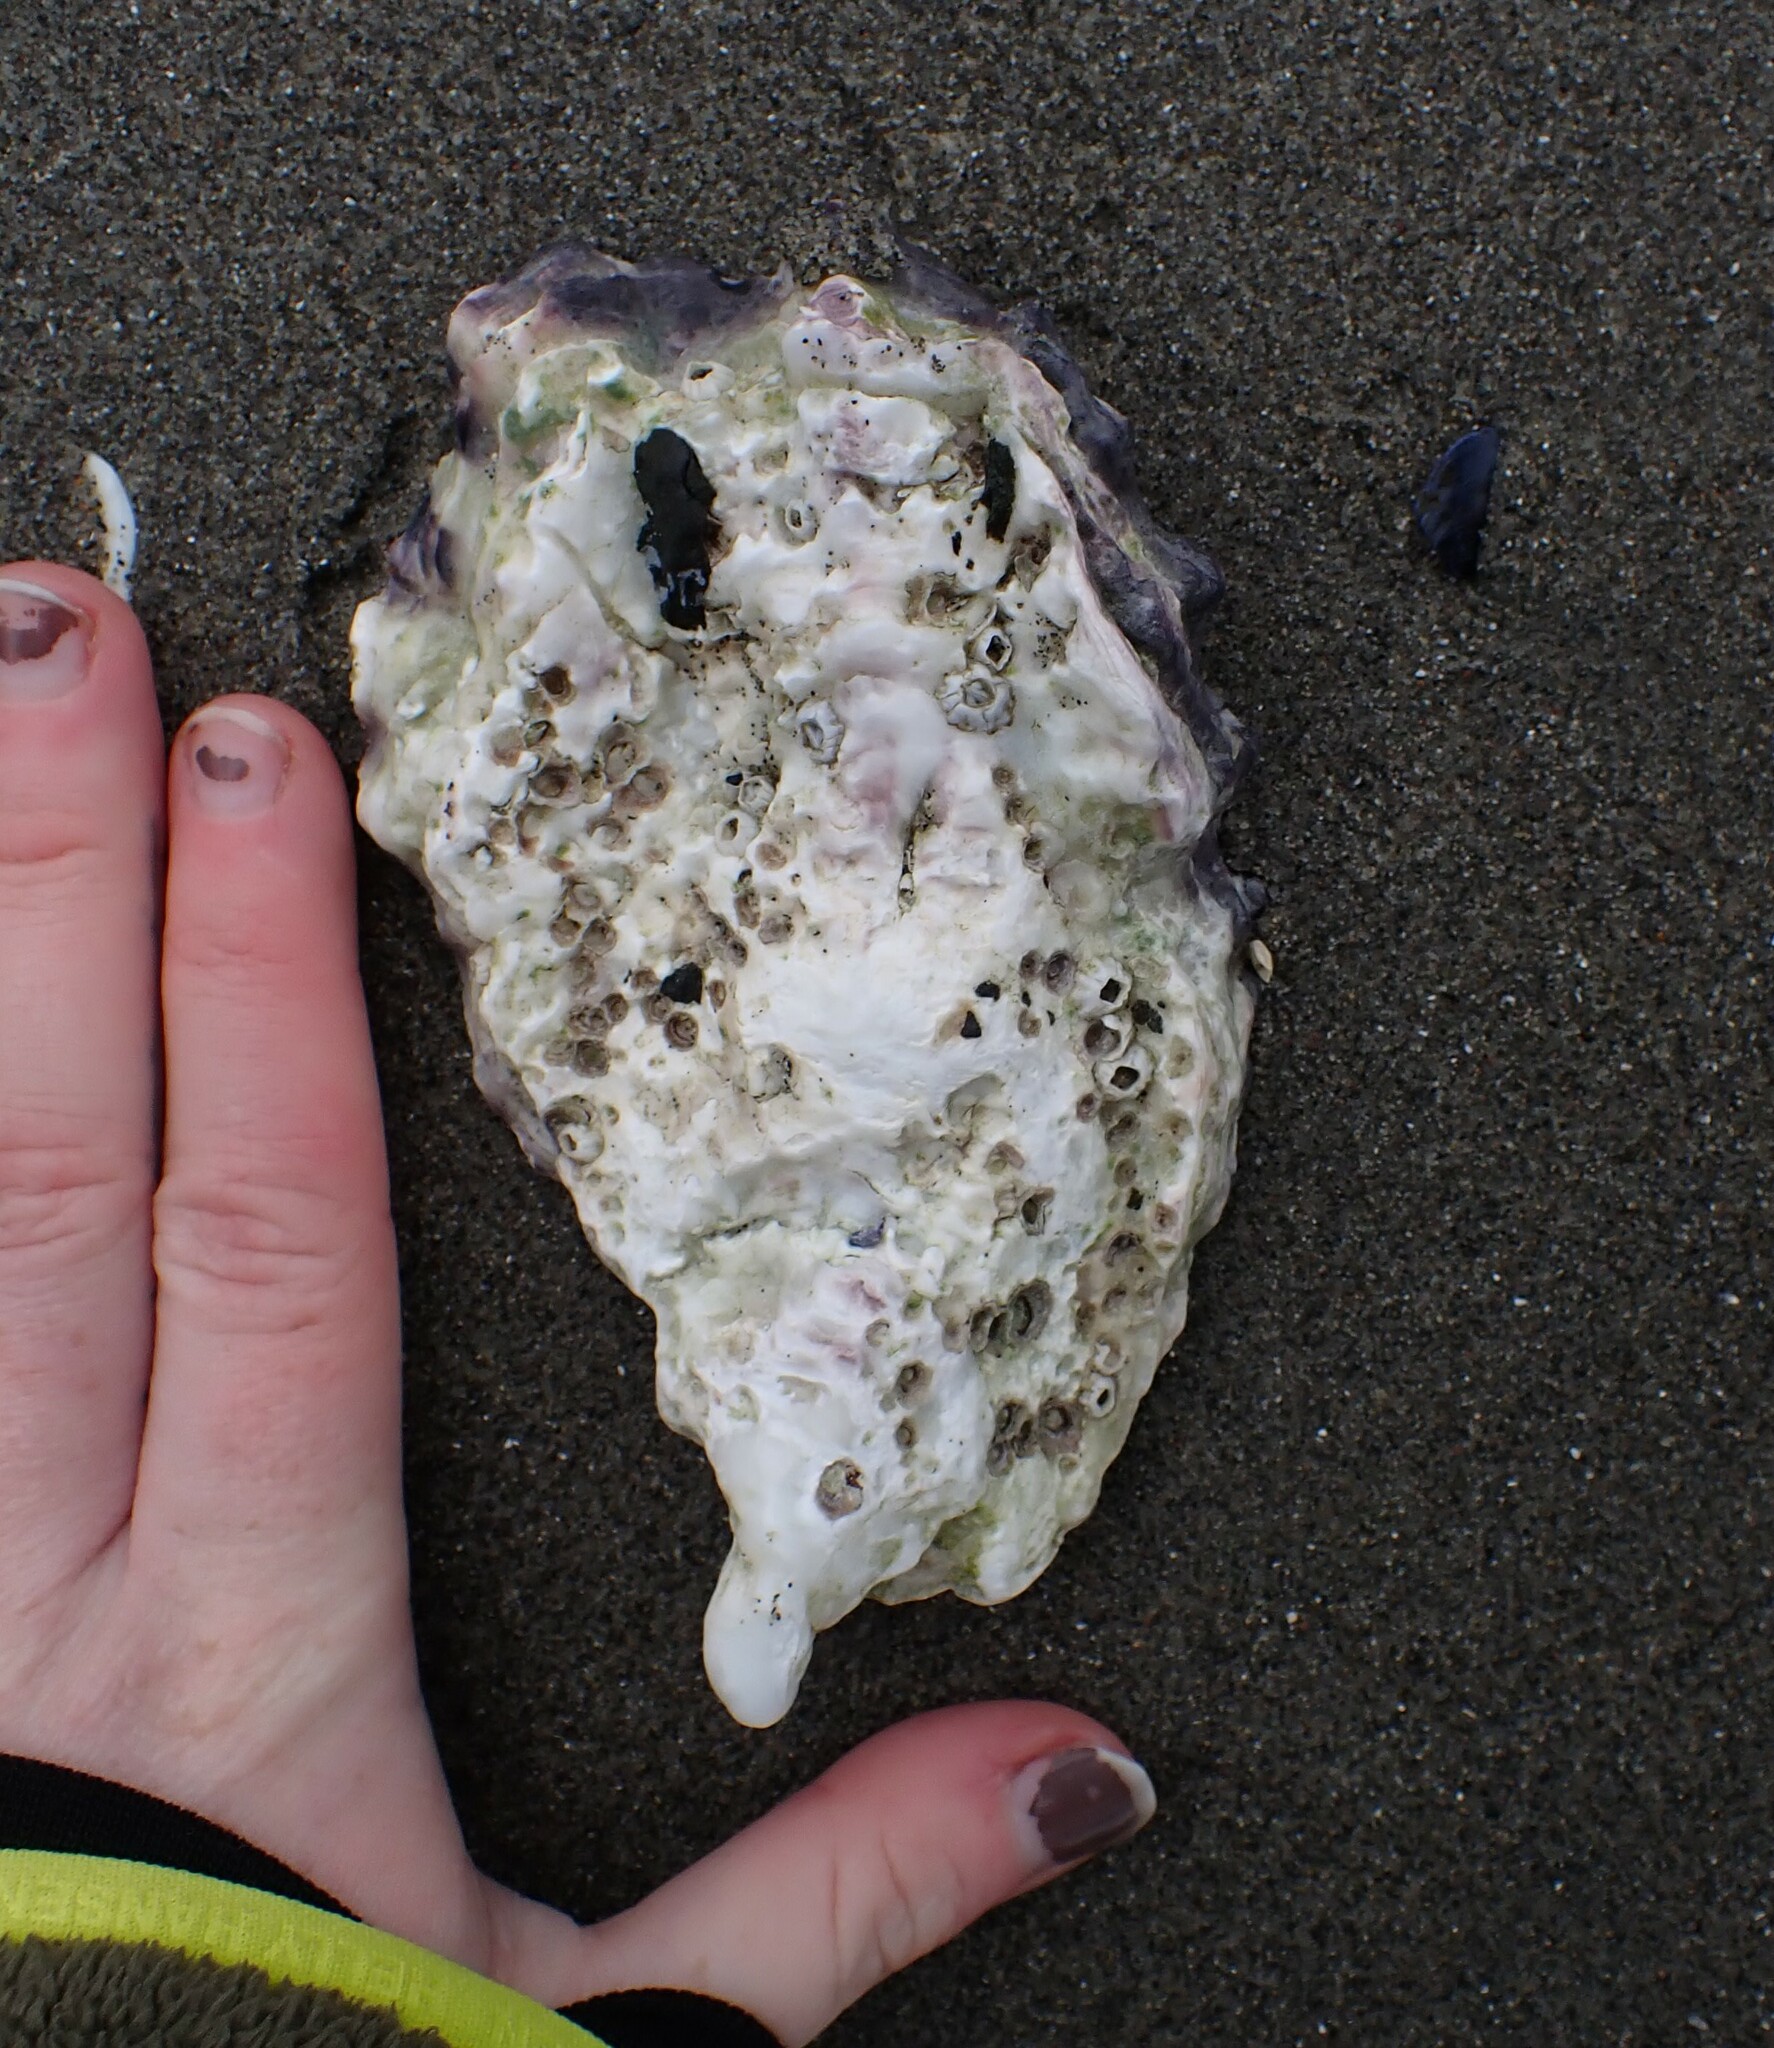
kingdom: Animalia
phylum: Mollusca
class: Bivalvia
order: Ostreida
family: Ostreidae
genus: Magallana
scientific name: Magallana gigas
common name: Pacific oyster
